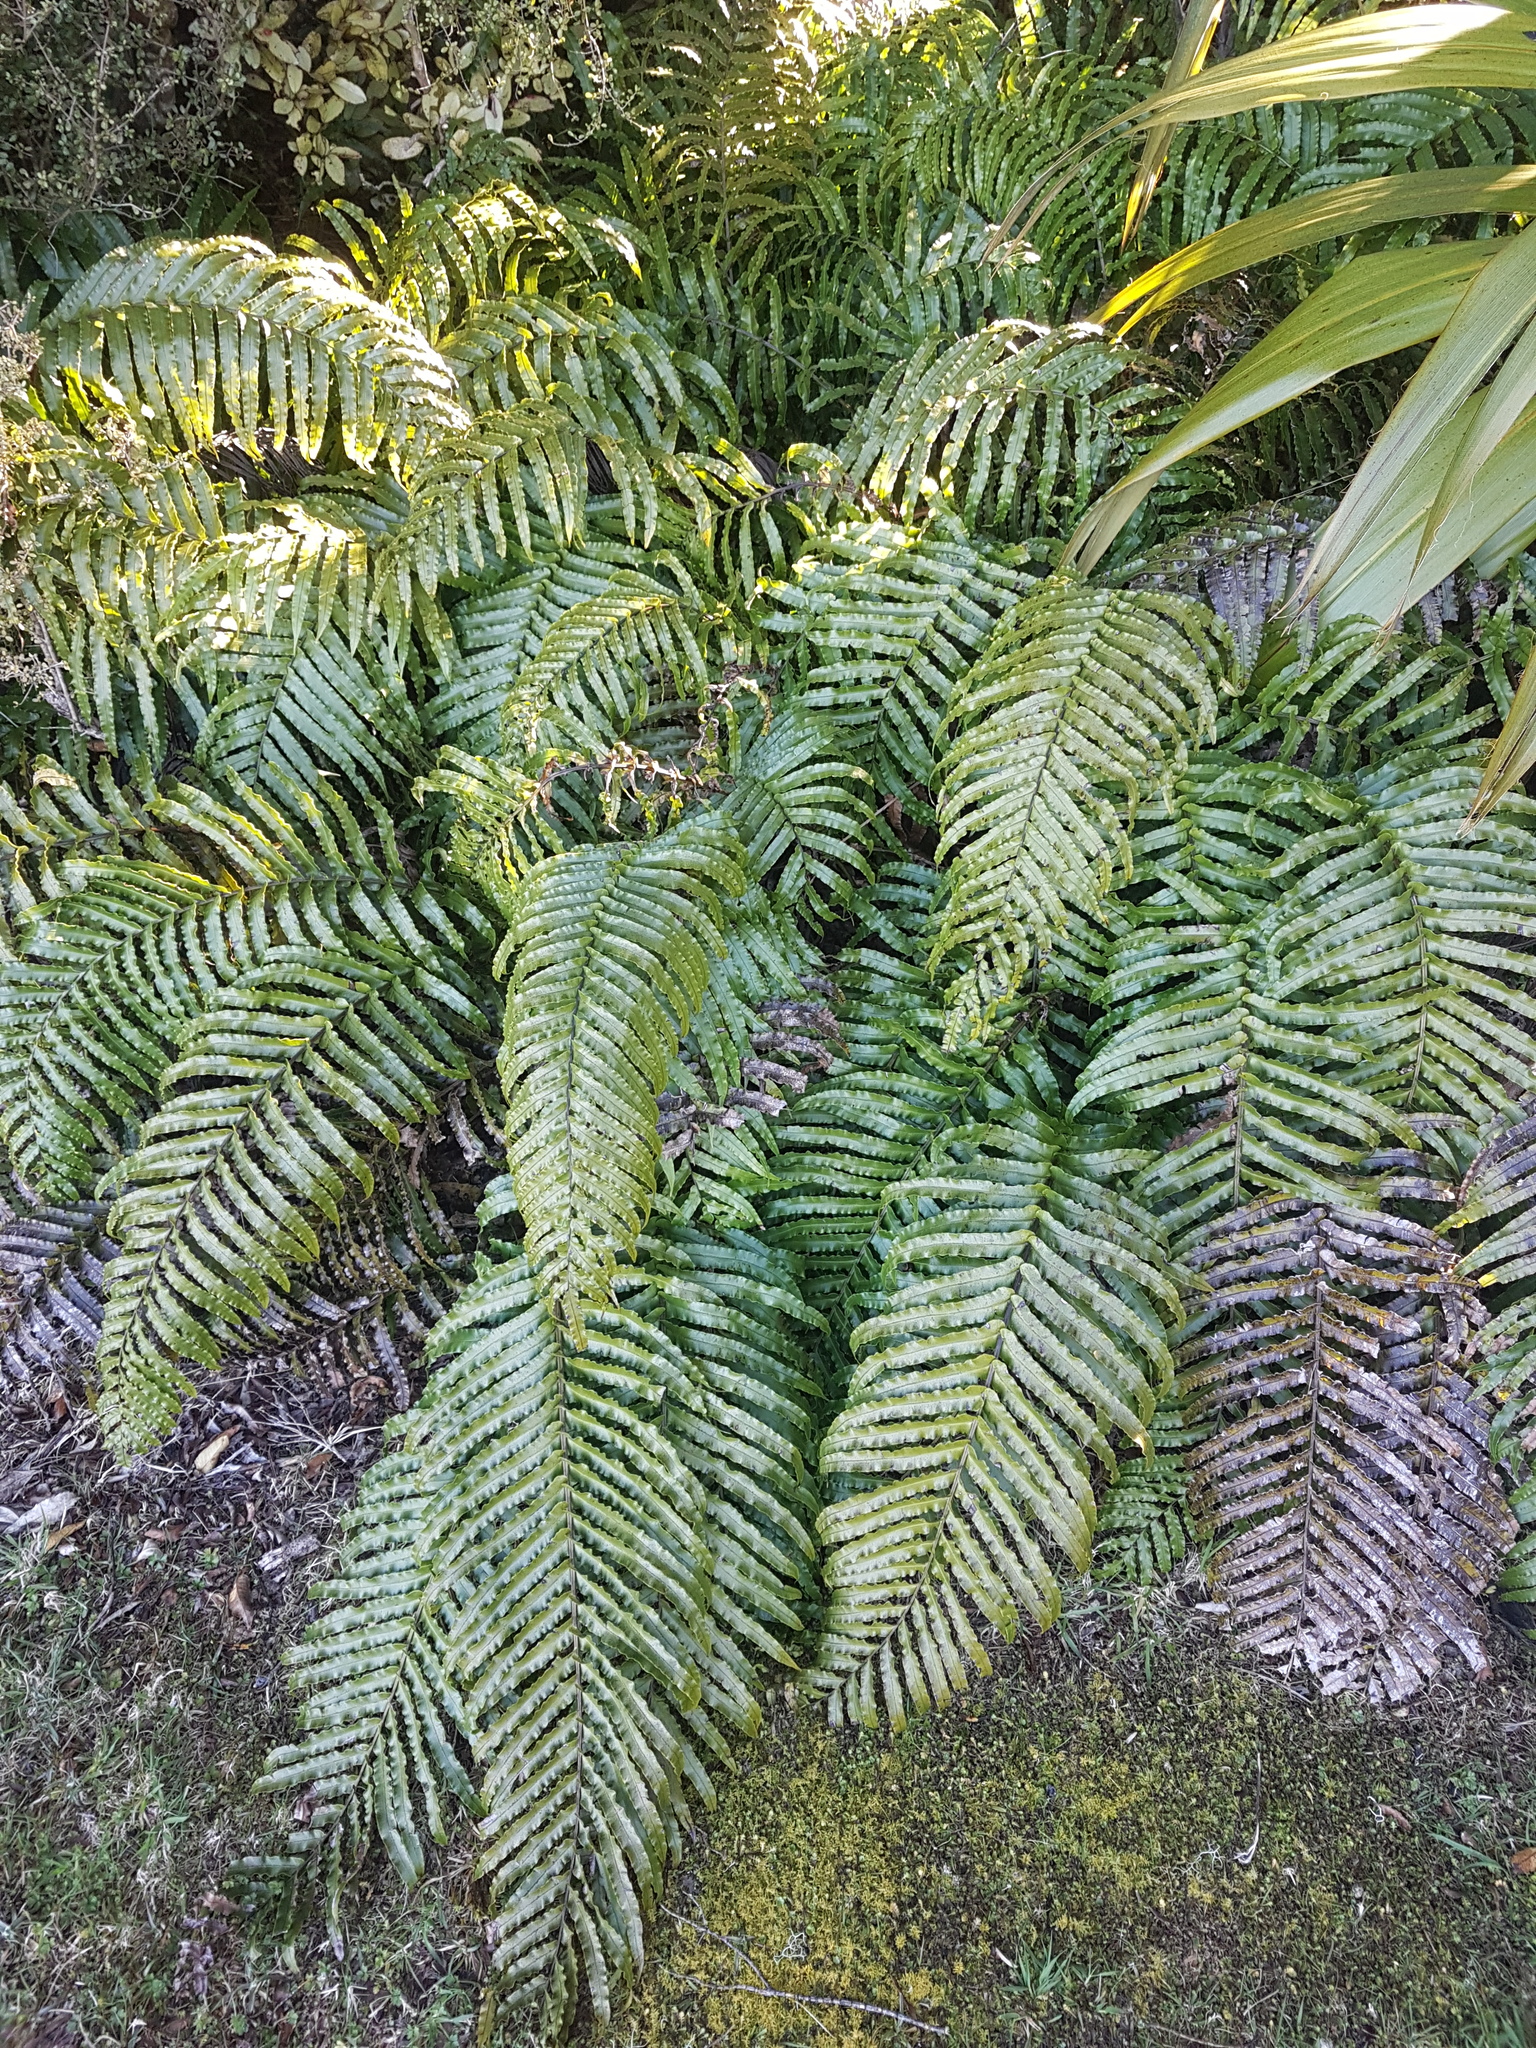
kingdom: Plantae
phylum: Tracheophyta
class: Polypodiopsida
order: Polypodiales
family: Blechnaceae
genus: Parablechnum
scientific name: Parablechnum novae-zelandiae
